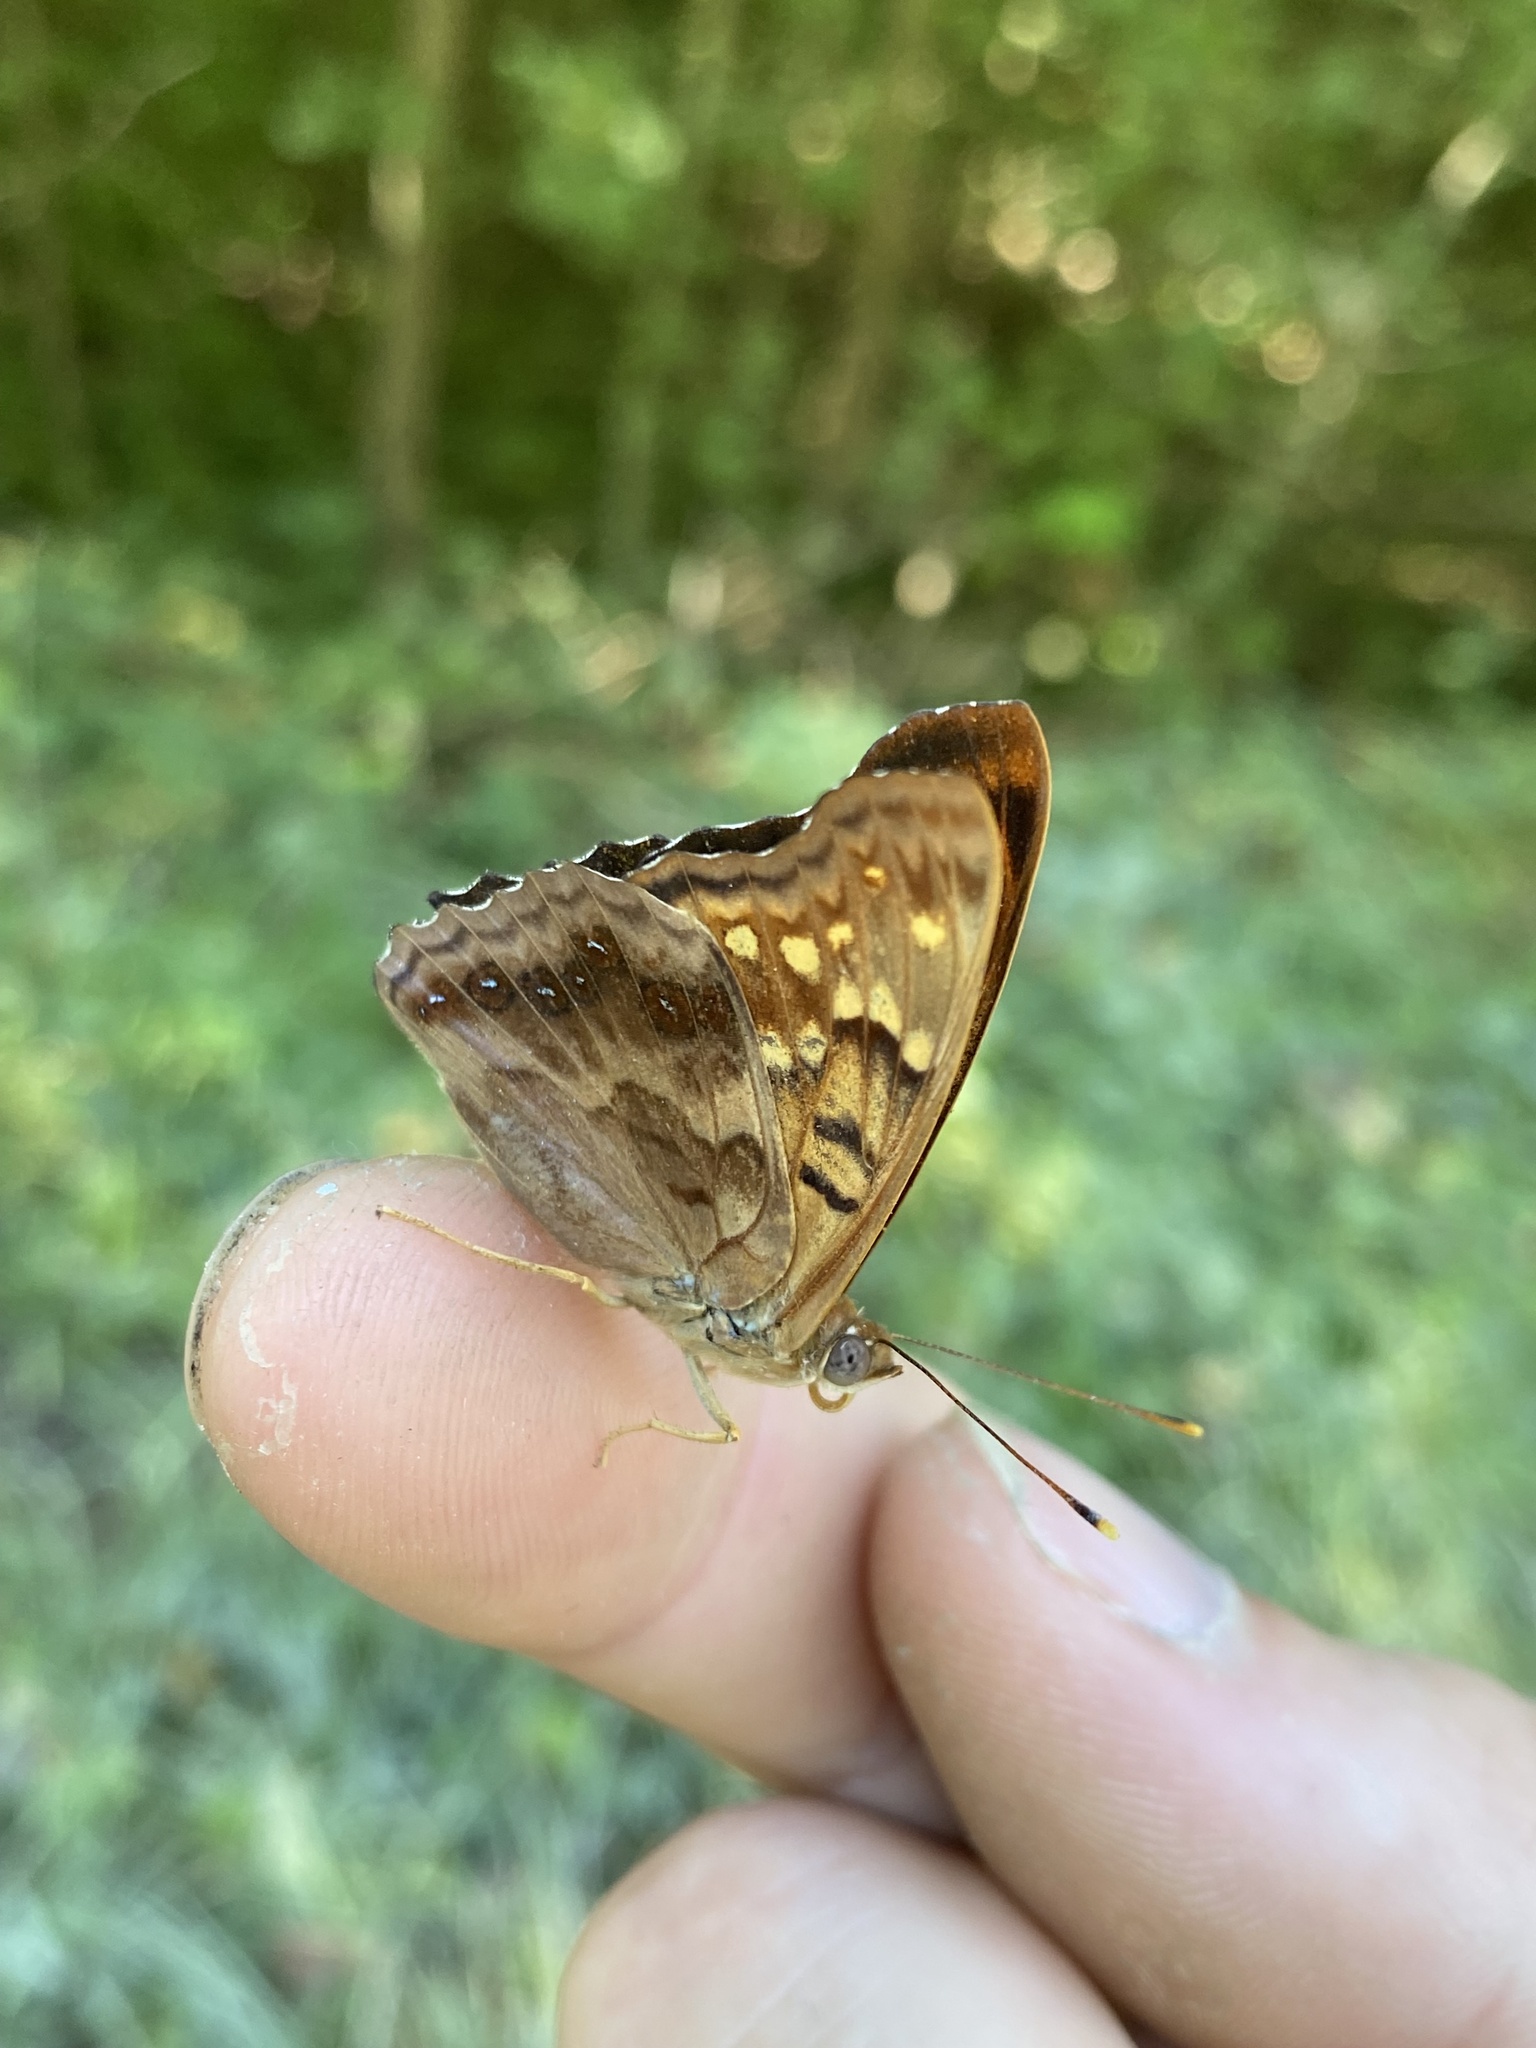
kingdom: Animalia
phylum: Arthropoda
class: Insecta
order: Lepidoptera
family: Nymphalidae
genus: Asterocampa
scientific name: Asterocampa clyton
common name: Tawny emperor
